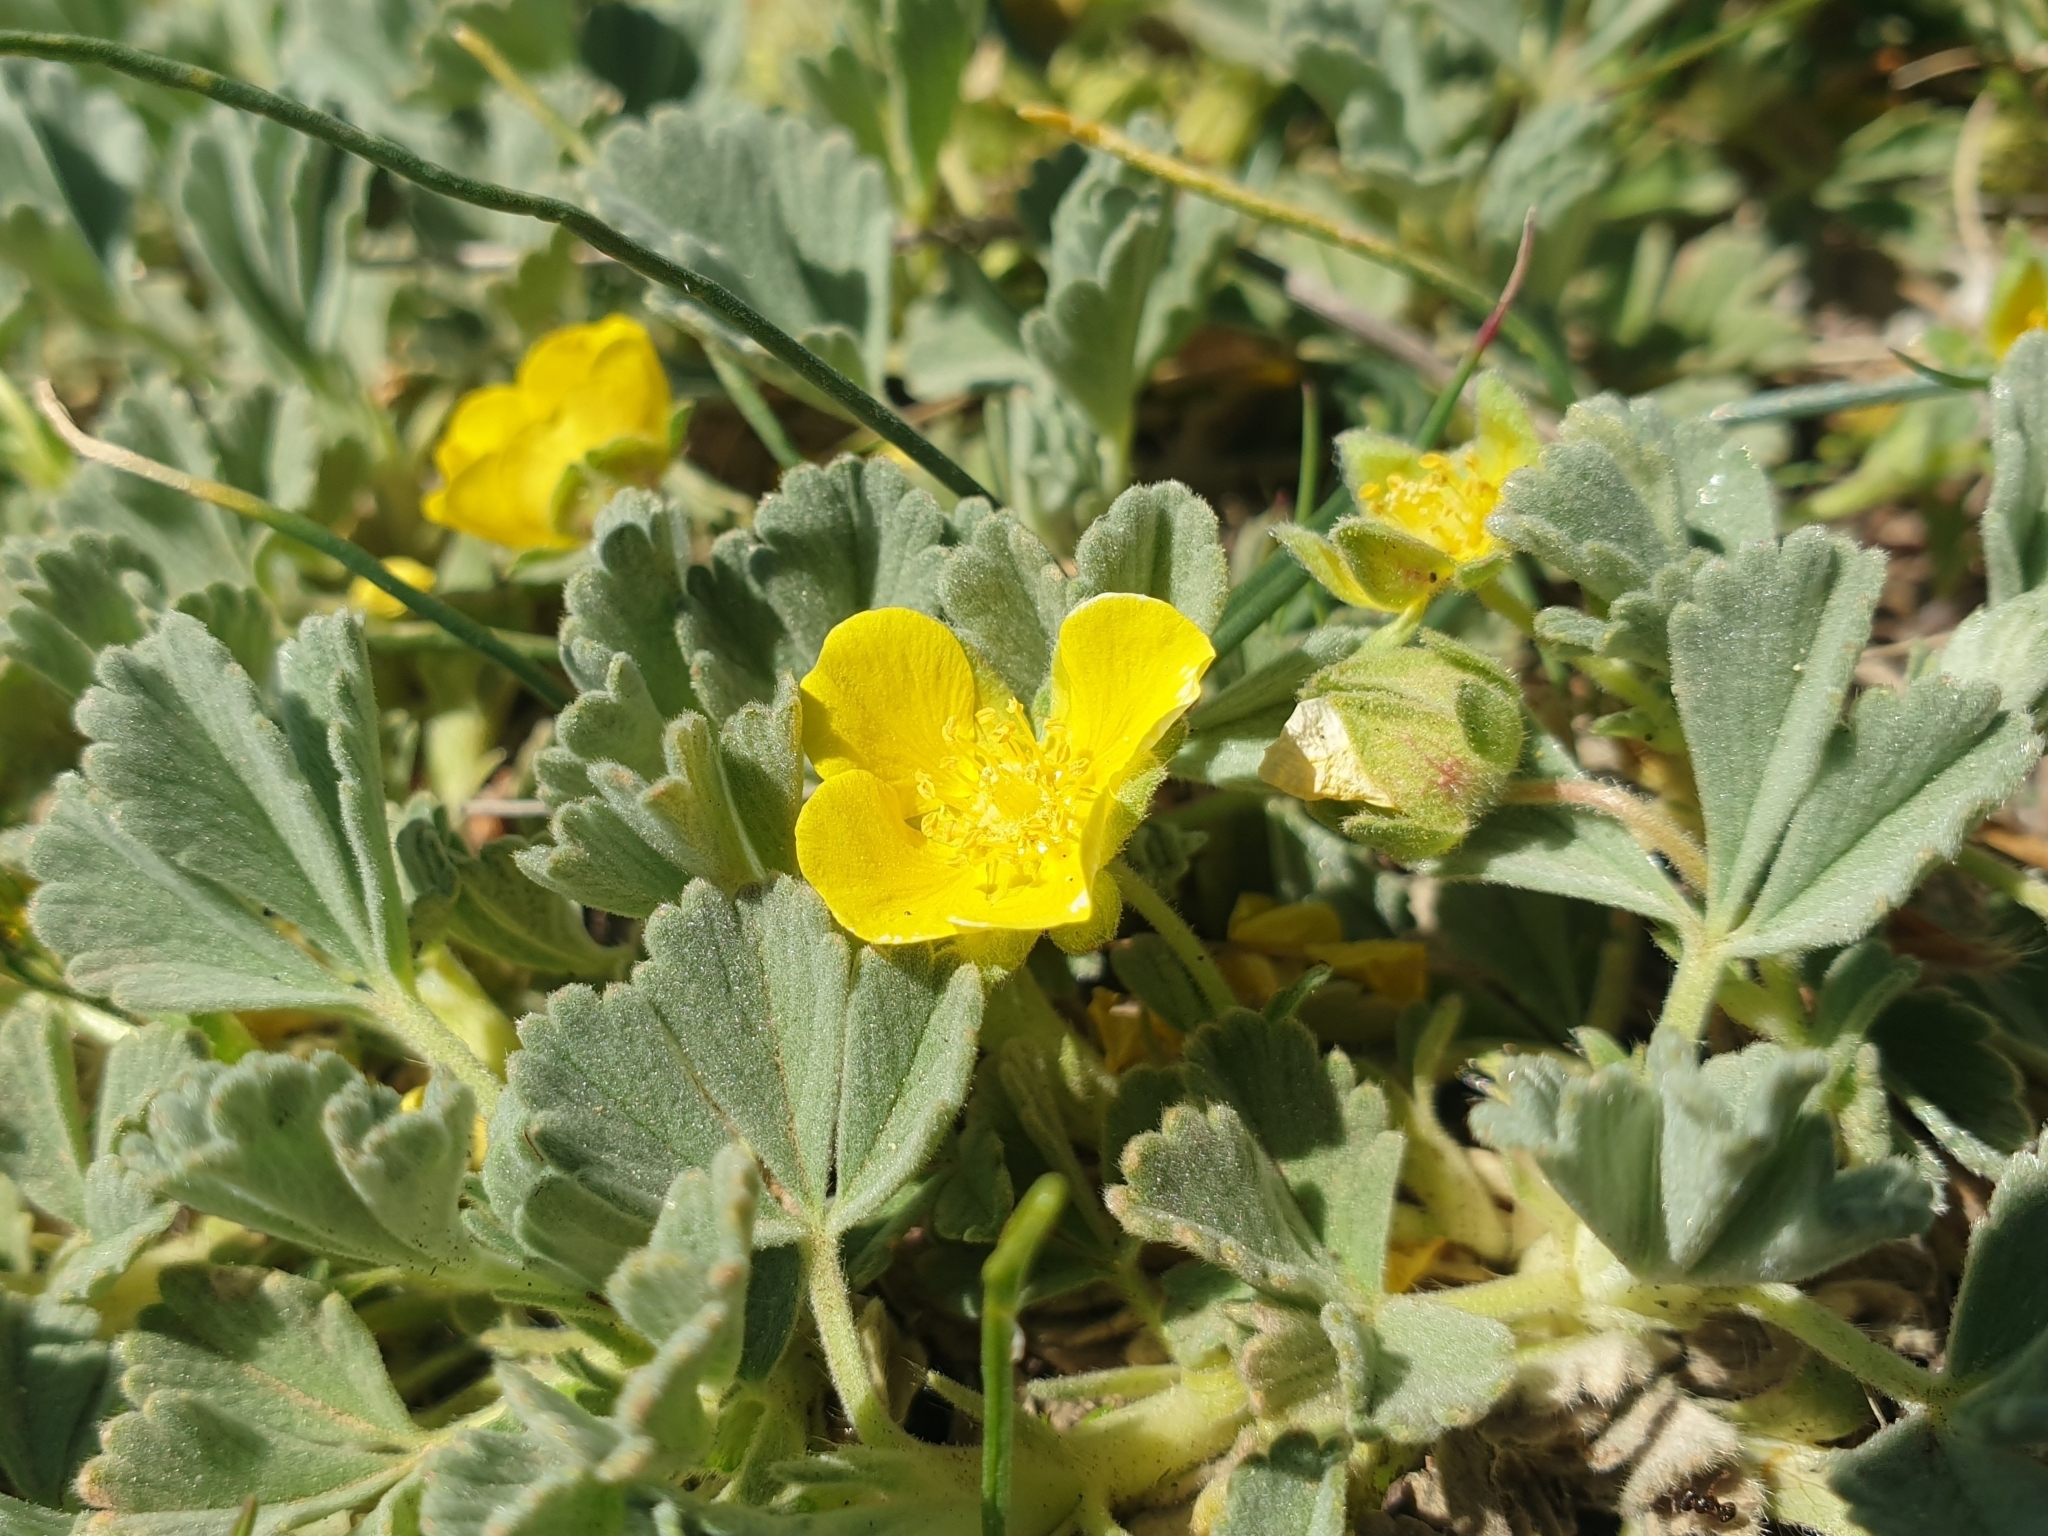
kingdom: Plantae
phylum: Tracheophyta
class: Magnoliopsida
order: Rosales
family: Rosaceae
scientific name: Rosaceae
